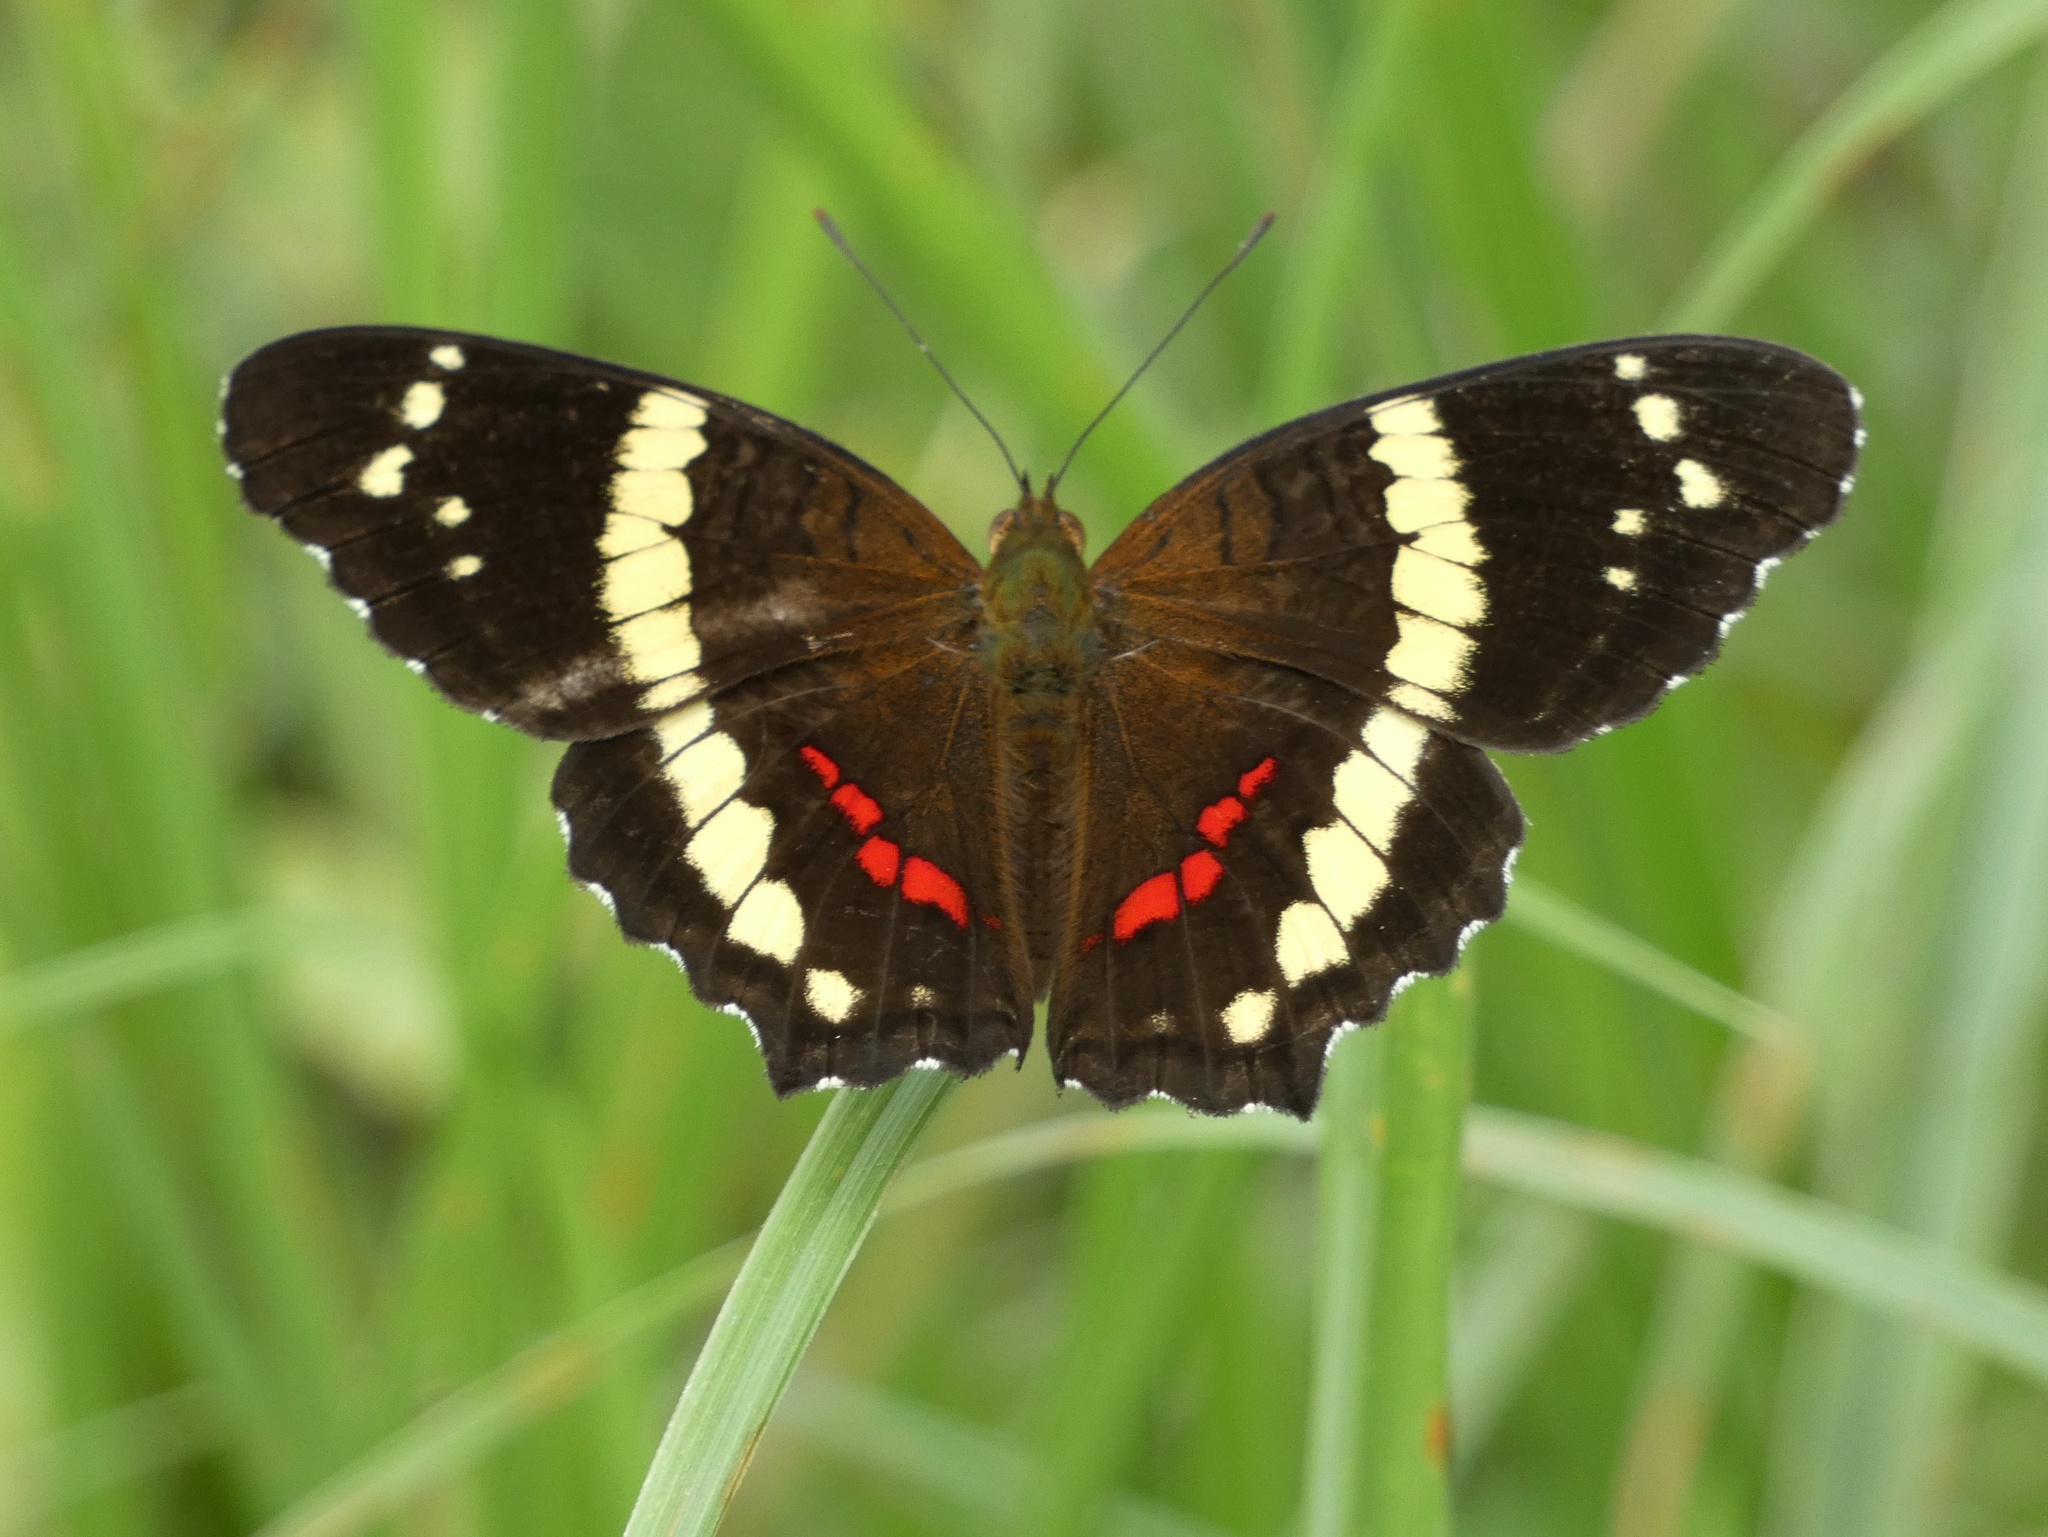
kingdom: Animalia
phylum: Arthropoda
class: Insecta
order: Lepidoptera
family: Nymphalidae
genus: Anartia
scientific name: Anartia fatima
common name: Banded peacock
